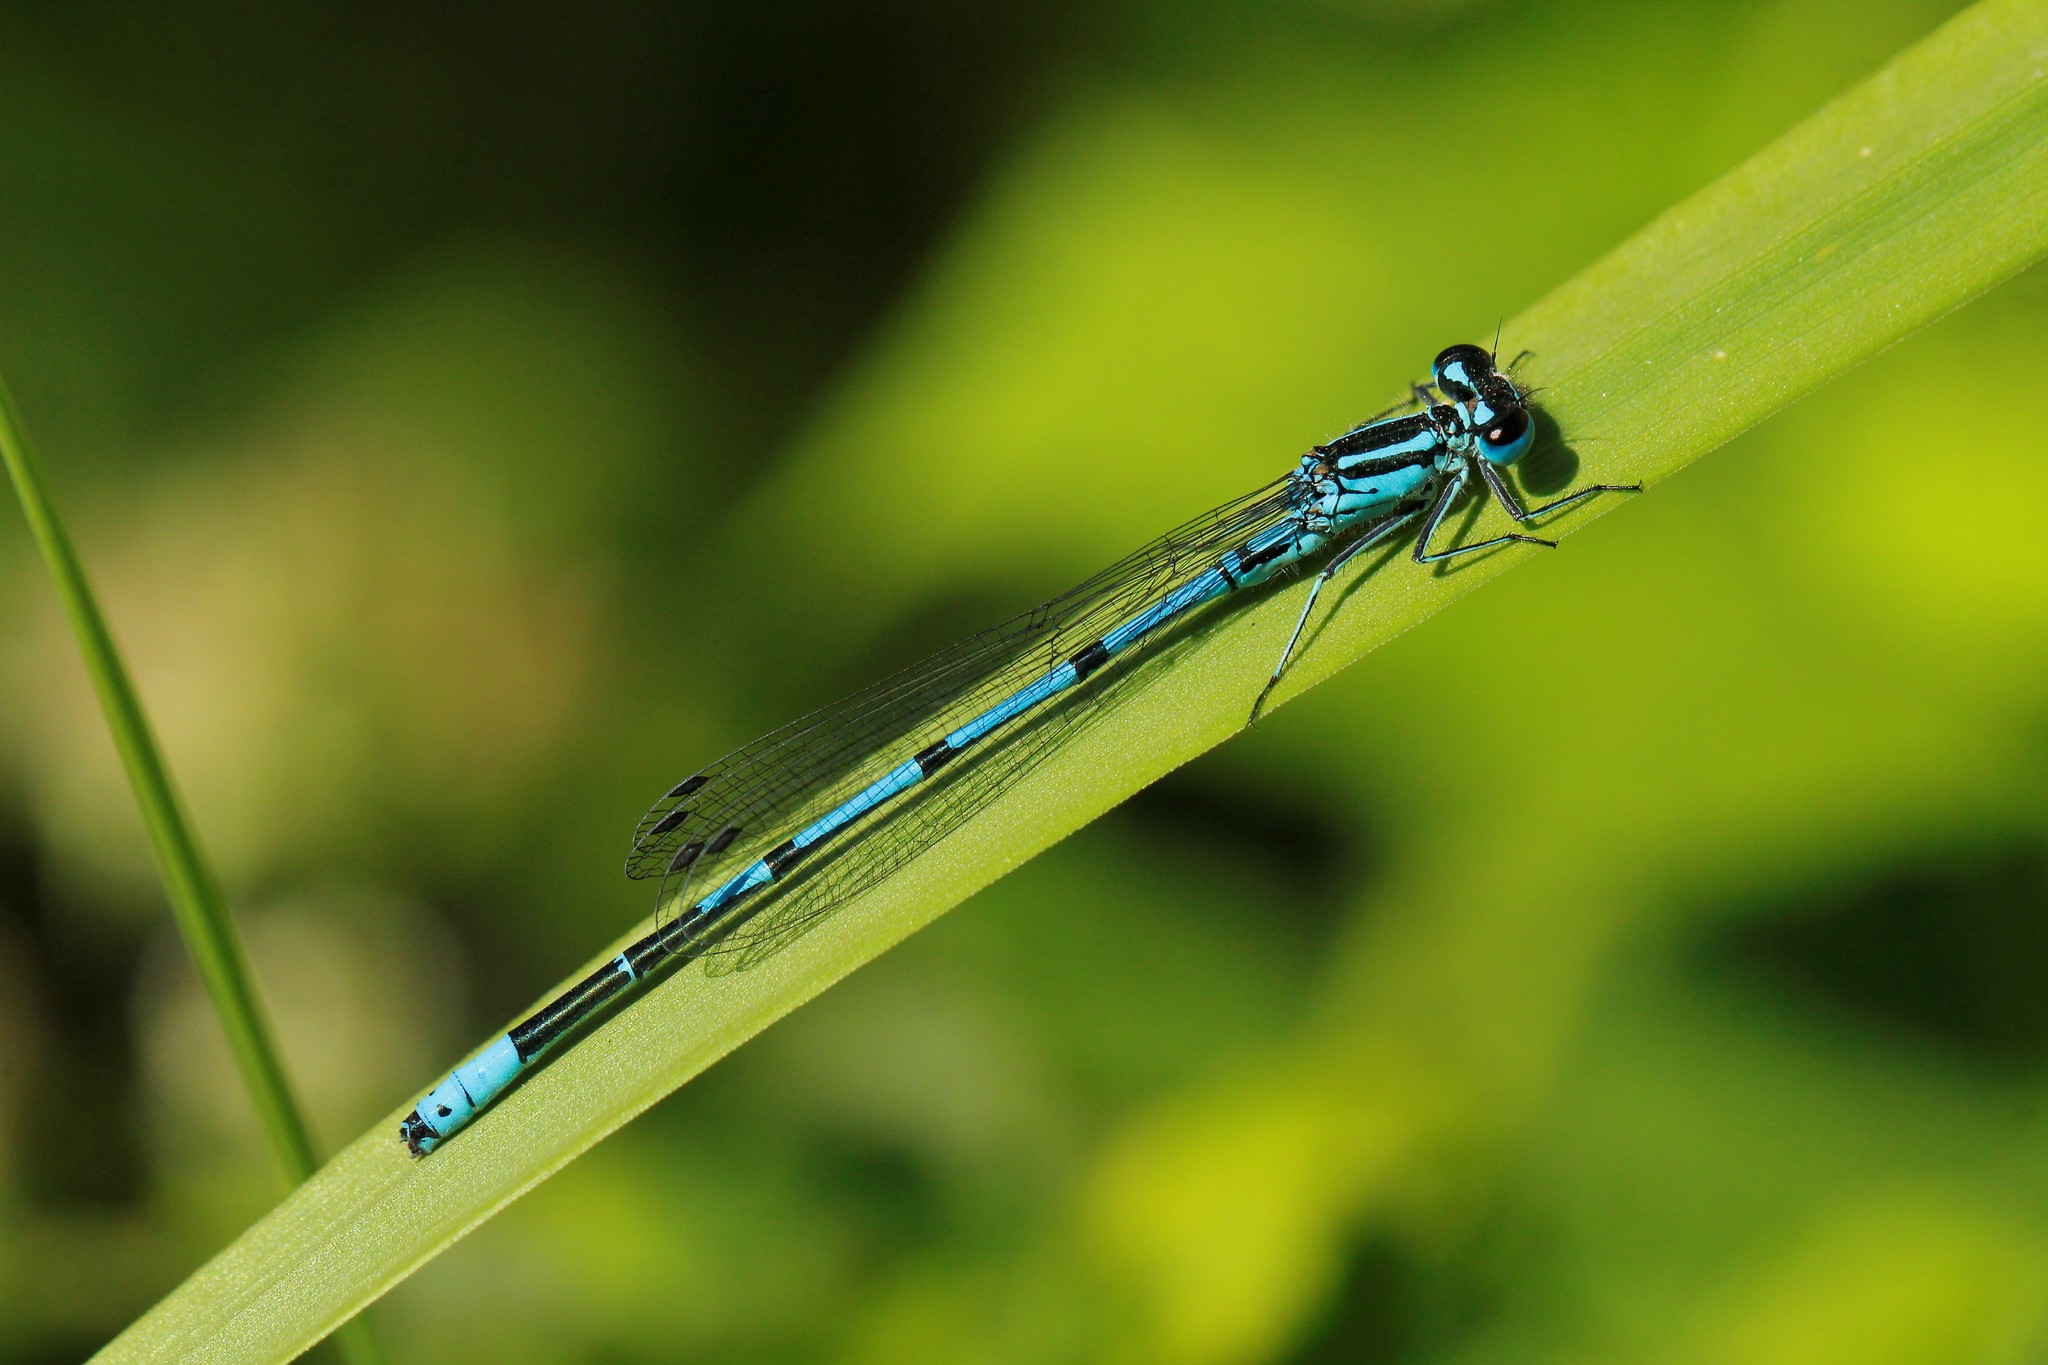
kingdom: Animalia
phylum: Arthropoda
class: Insecta
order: Odonata
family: Coenagrionidae
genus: Coenagrion
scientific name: Coenagrion puella
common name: Azure damselfly
